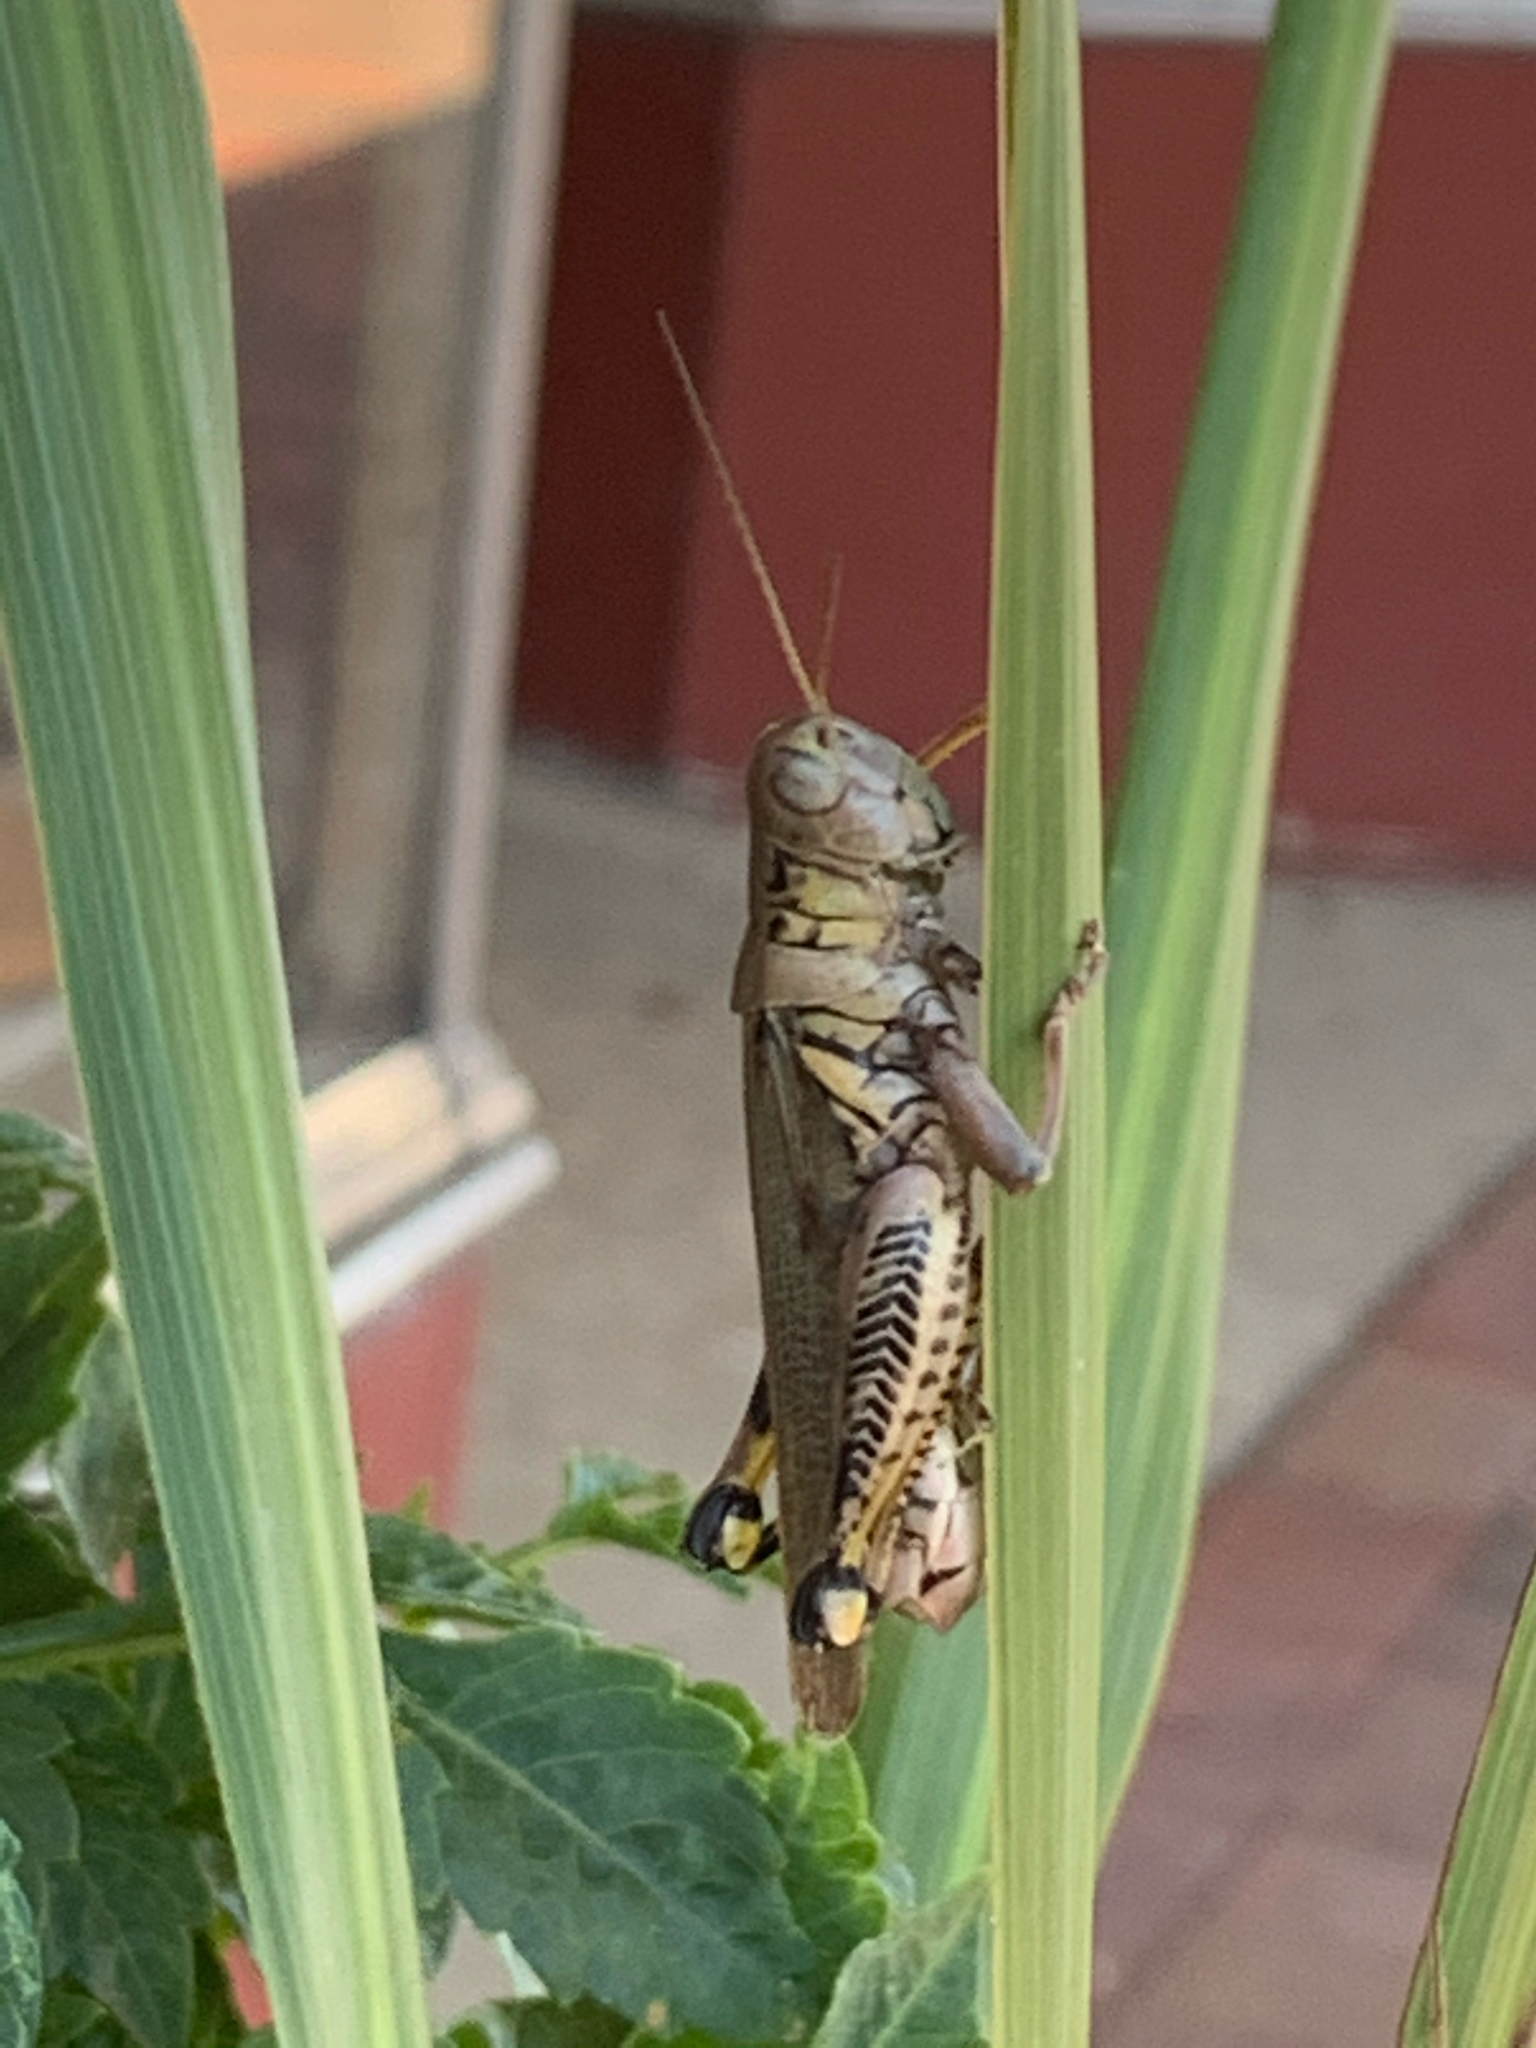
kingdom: Animalia
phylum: Arthropoda
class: Insecta
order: Orthoptera
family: Acrididae
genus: Melanoplus
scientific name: Melanoplus differentialis
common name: Differential grasshopper
